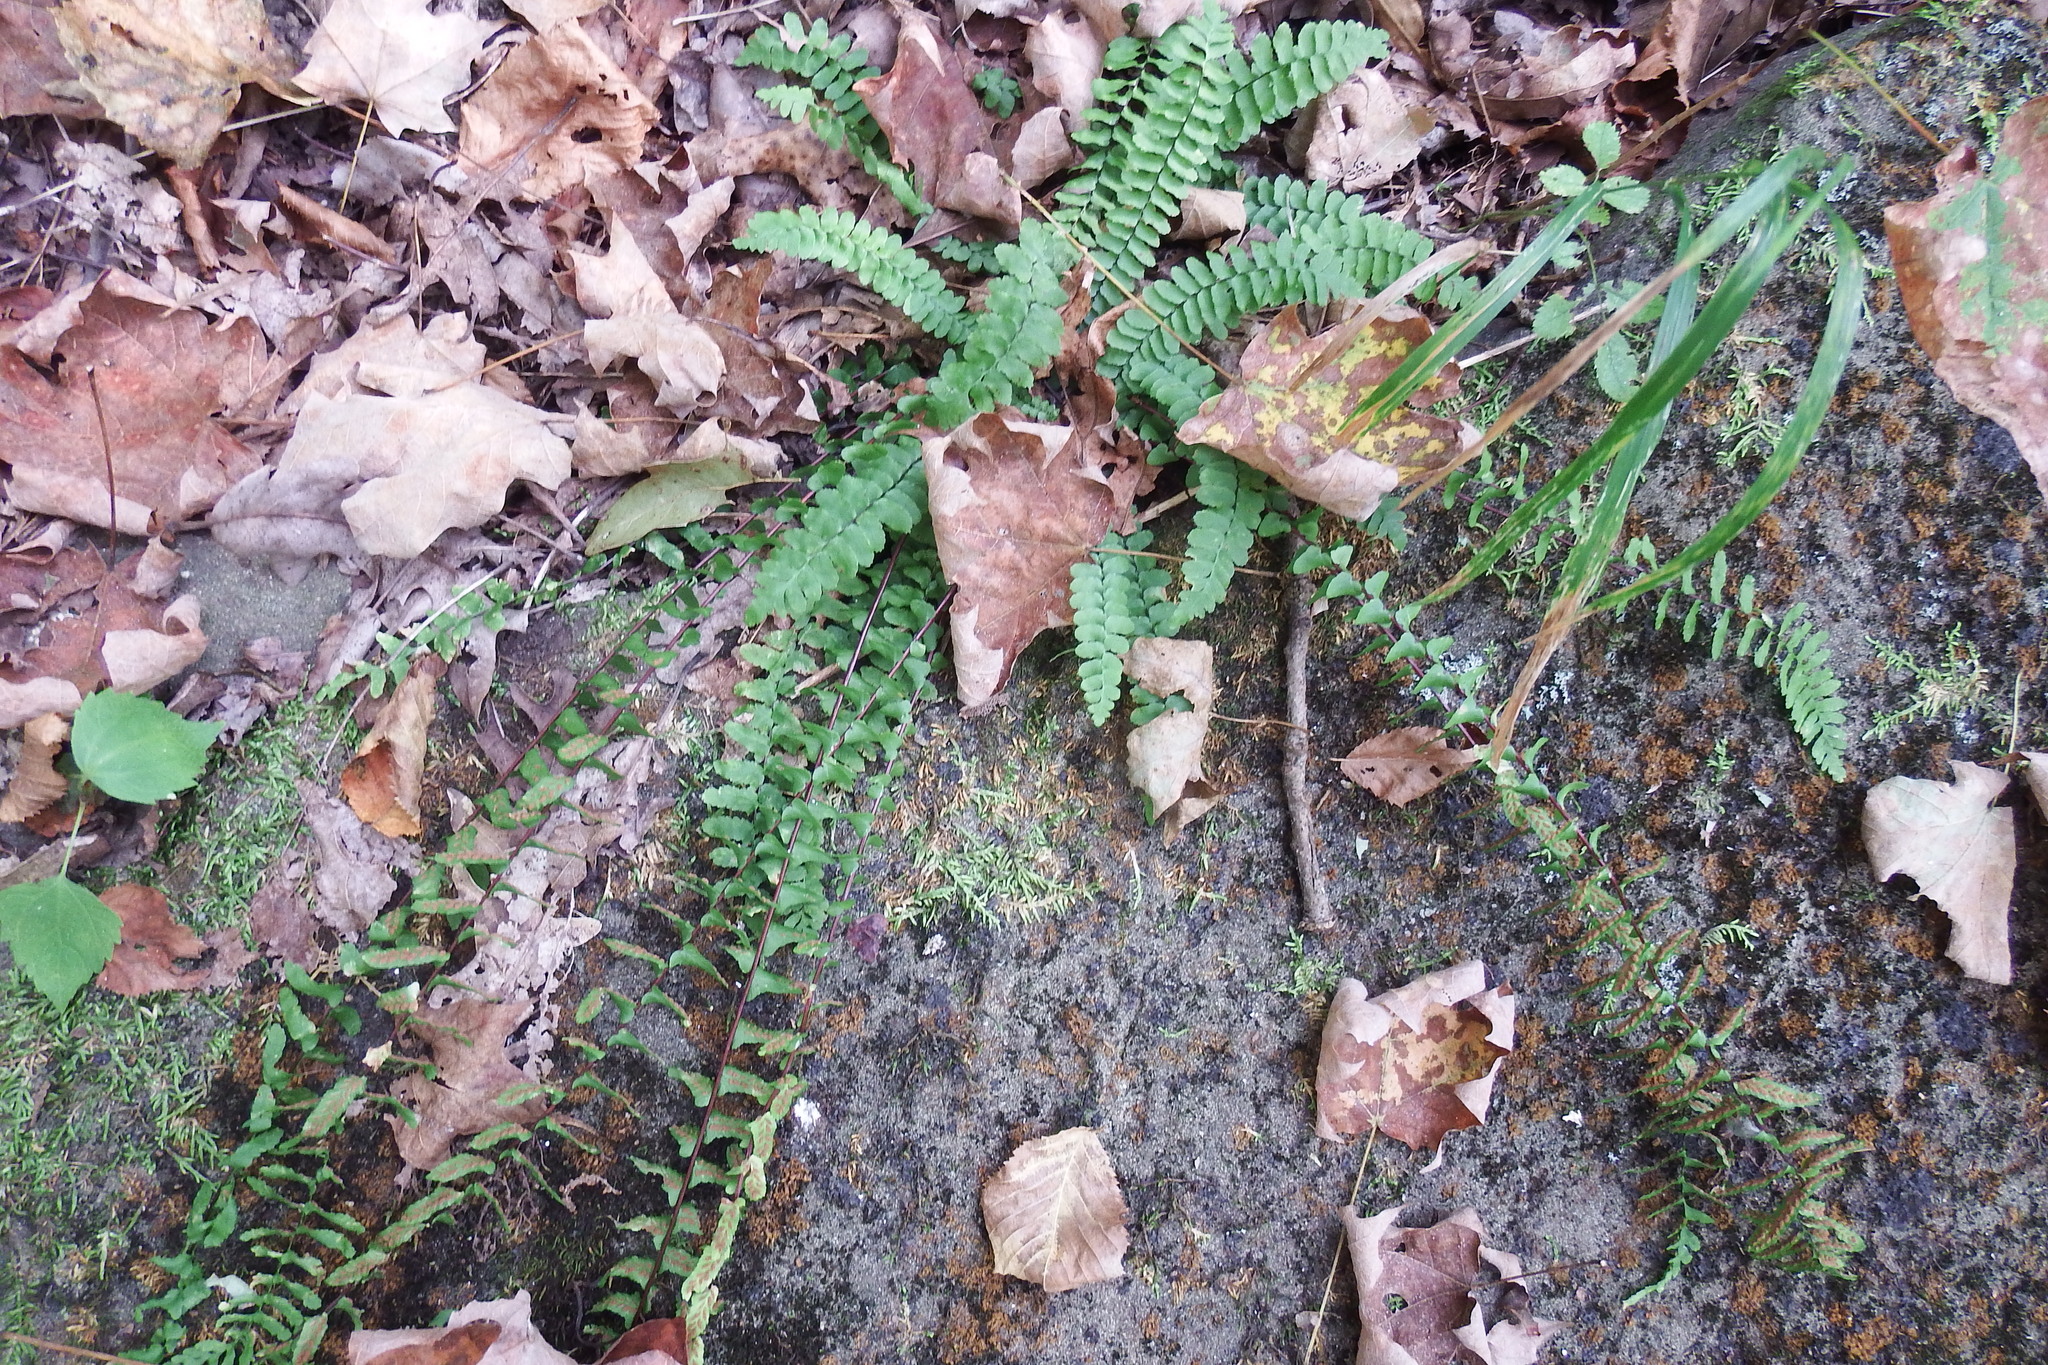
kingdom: Plantae
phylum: Tracheophyta
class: Polypodiopsida
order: Polypodiales
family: Aspleniaceae
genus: Asplenium
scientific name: Asplenium platyneuron
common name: Ebony spleenwort
